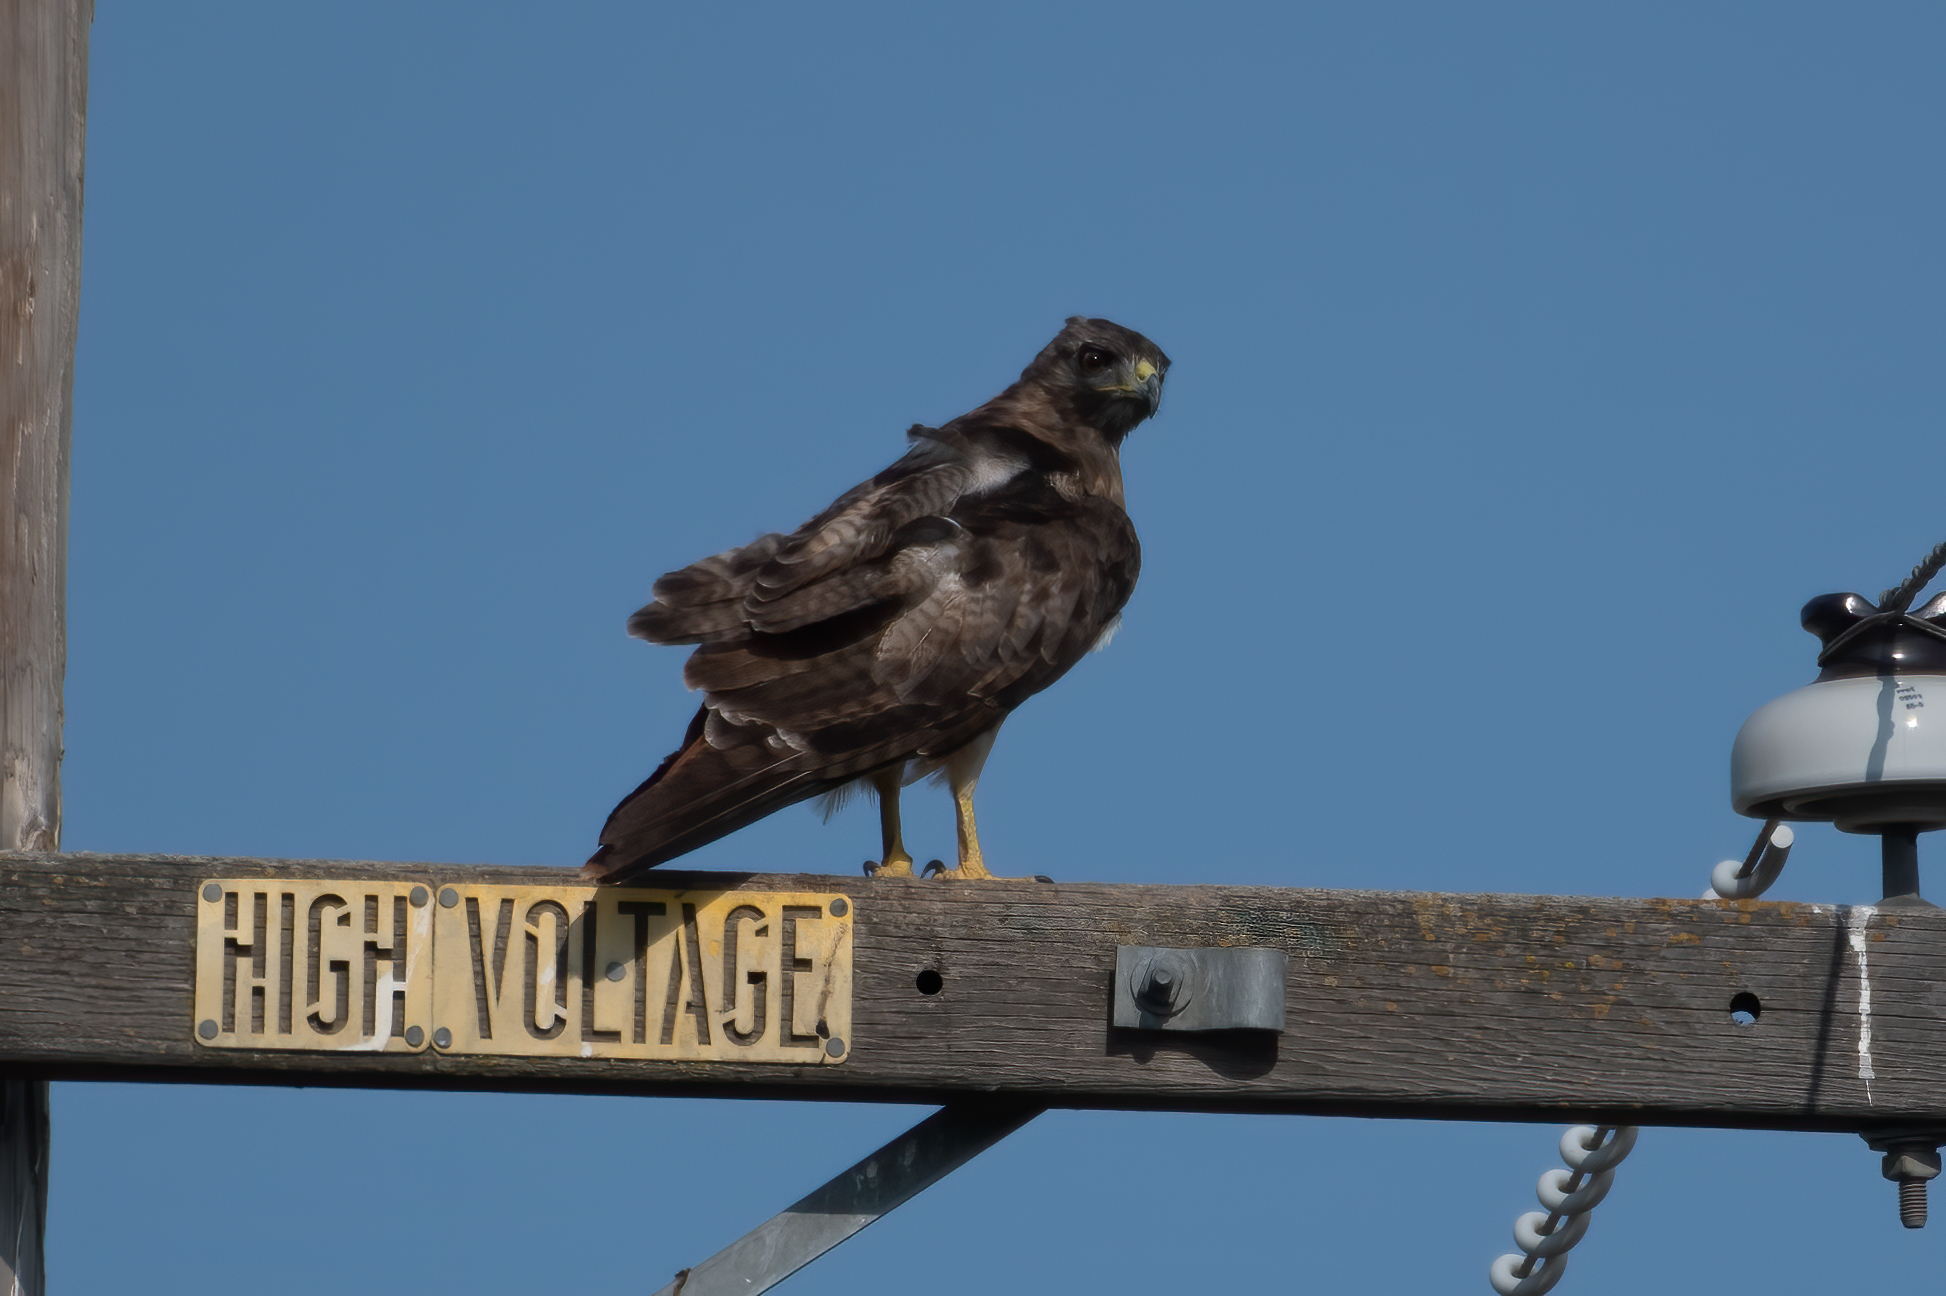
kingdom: Animalia
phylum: Chordata
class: Aves
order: Accipitriformes
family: Accipitridae
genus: Buteo
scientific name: Buteo jamaicensis
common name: Red-tailed hawk
